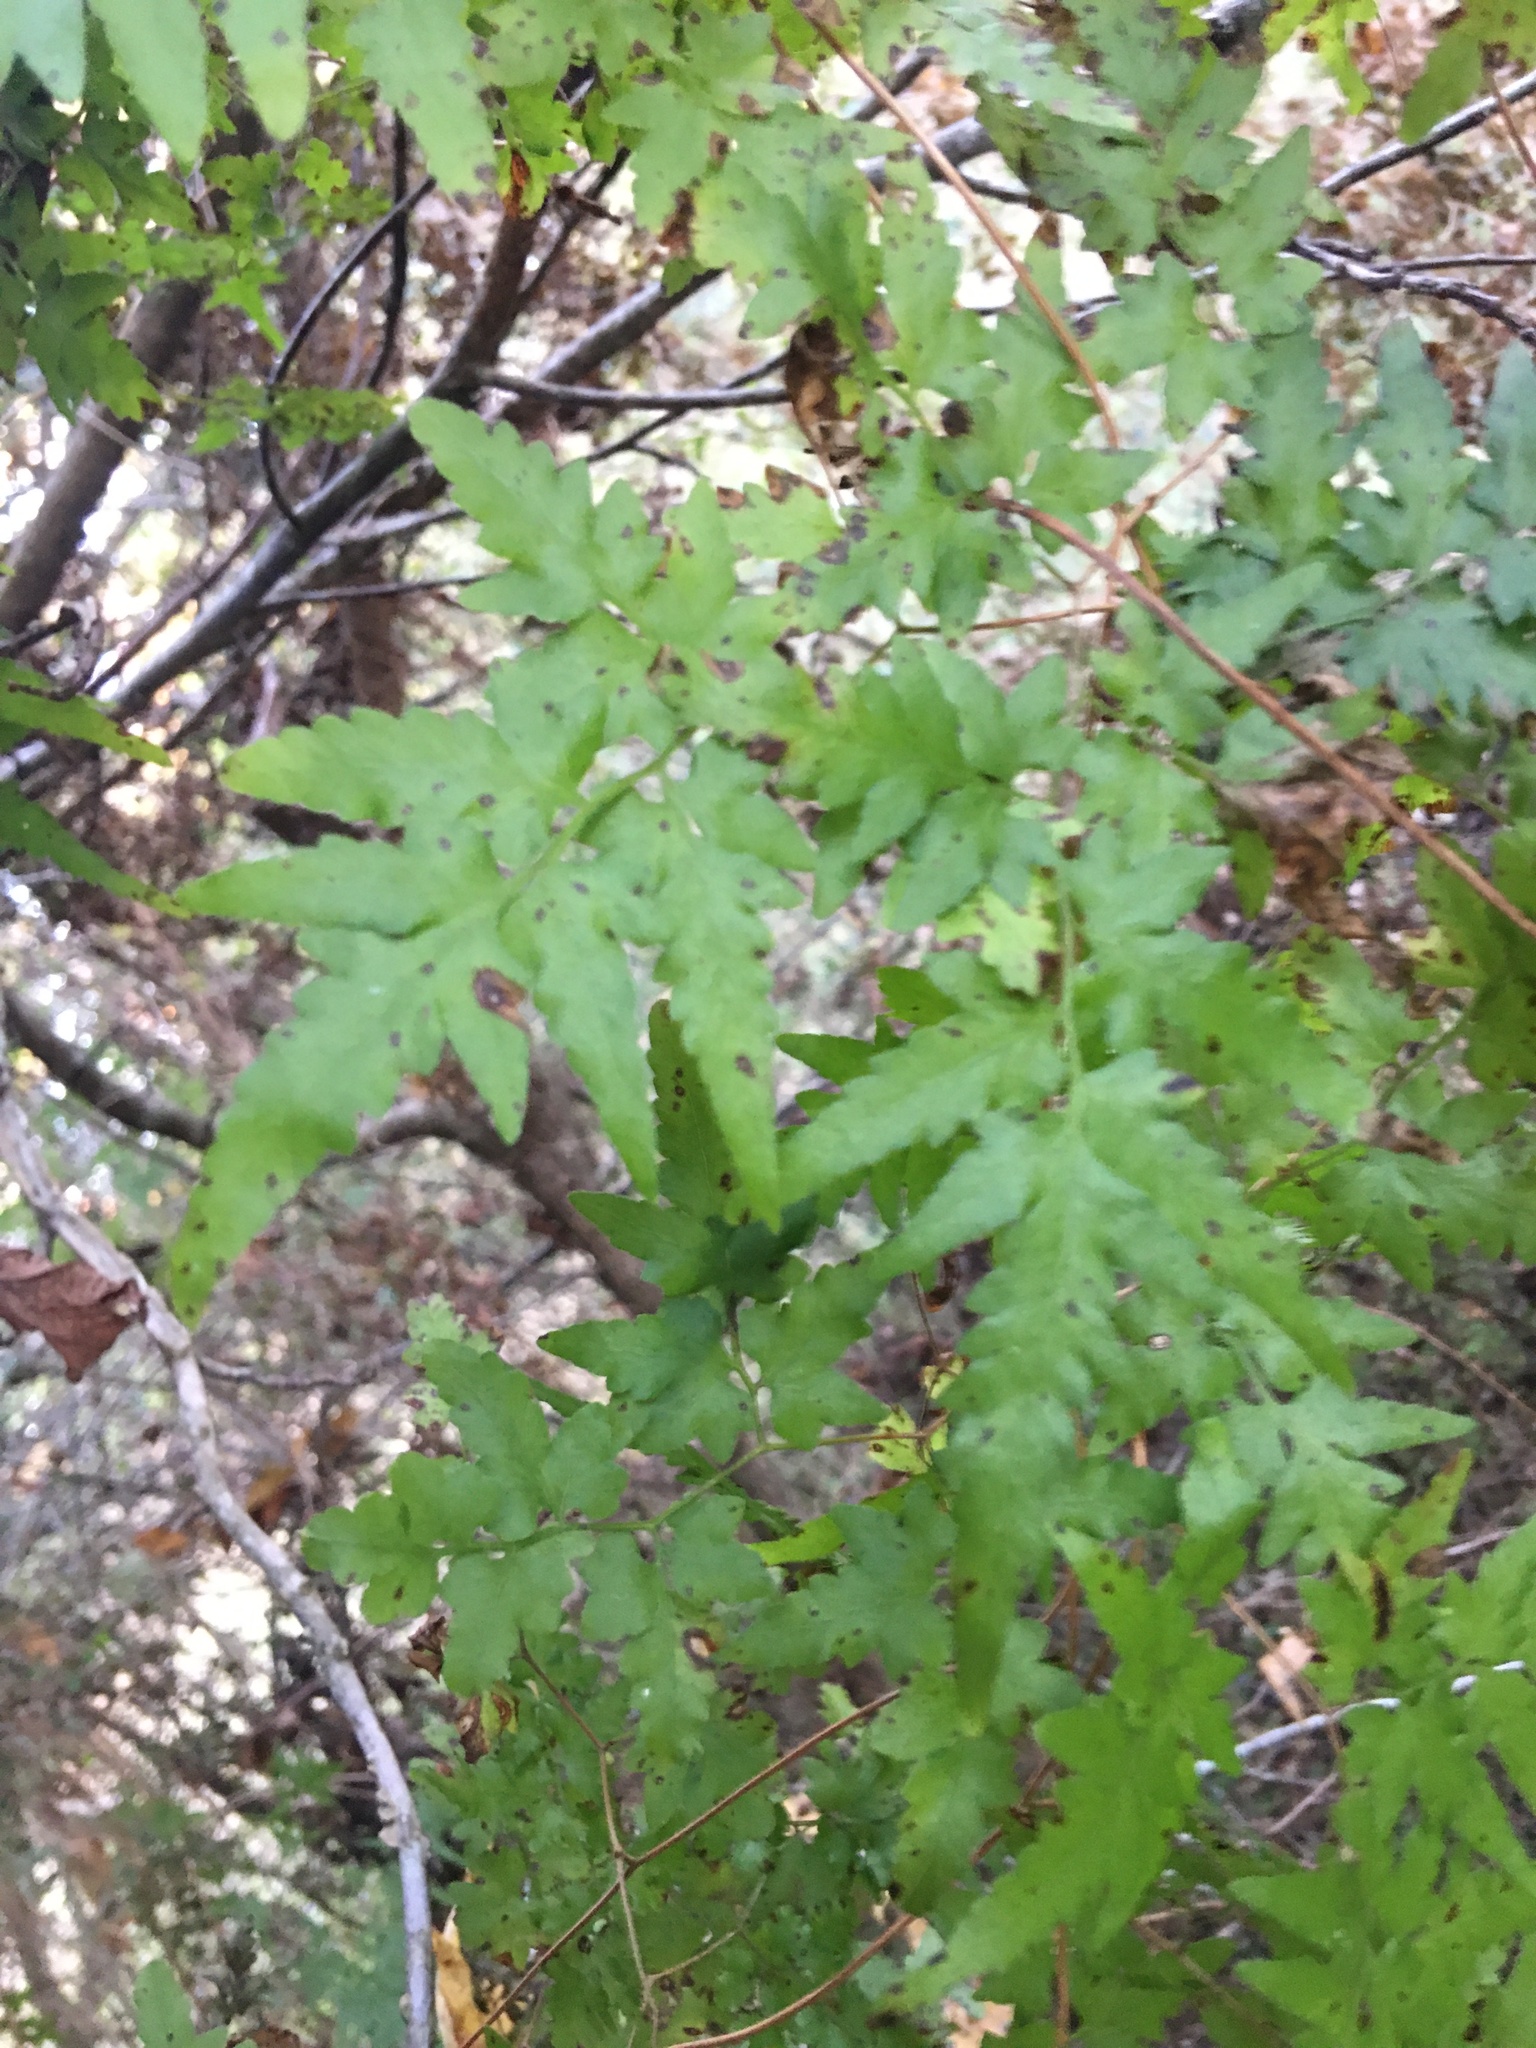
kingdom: Plantae
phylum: Tracheophyta
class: Polypodiopsida
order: Schizaeales
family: Lygodiaceae
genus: Lygodium
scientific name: Lygodium japonicum
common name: Japanese climbing fern
